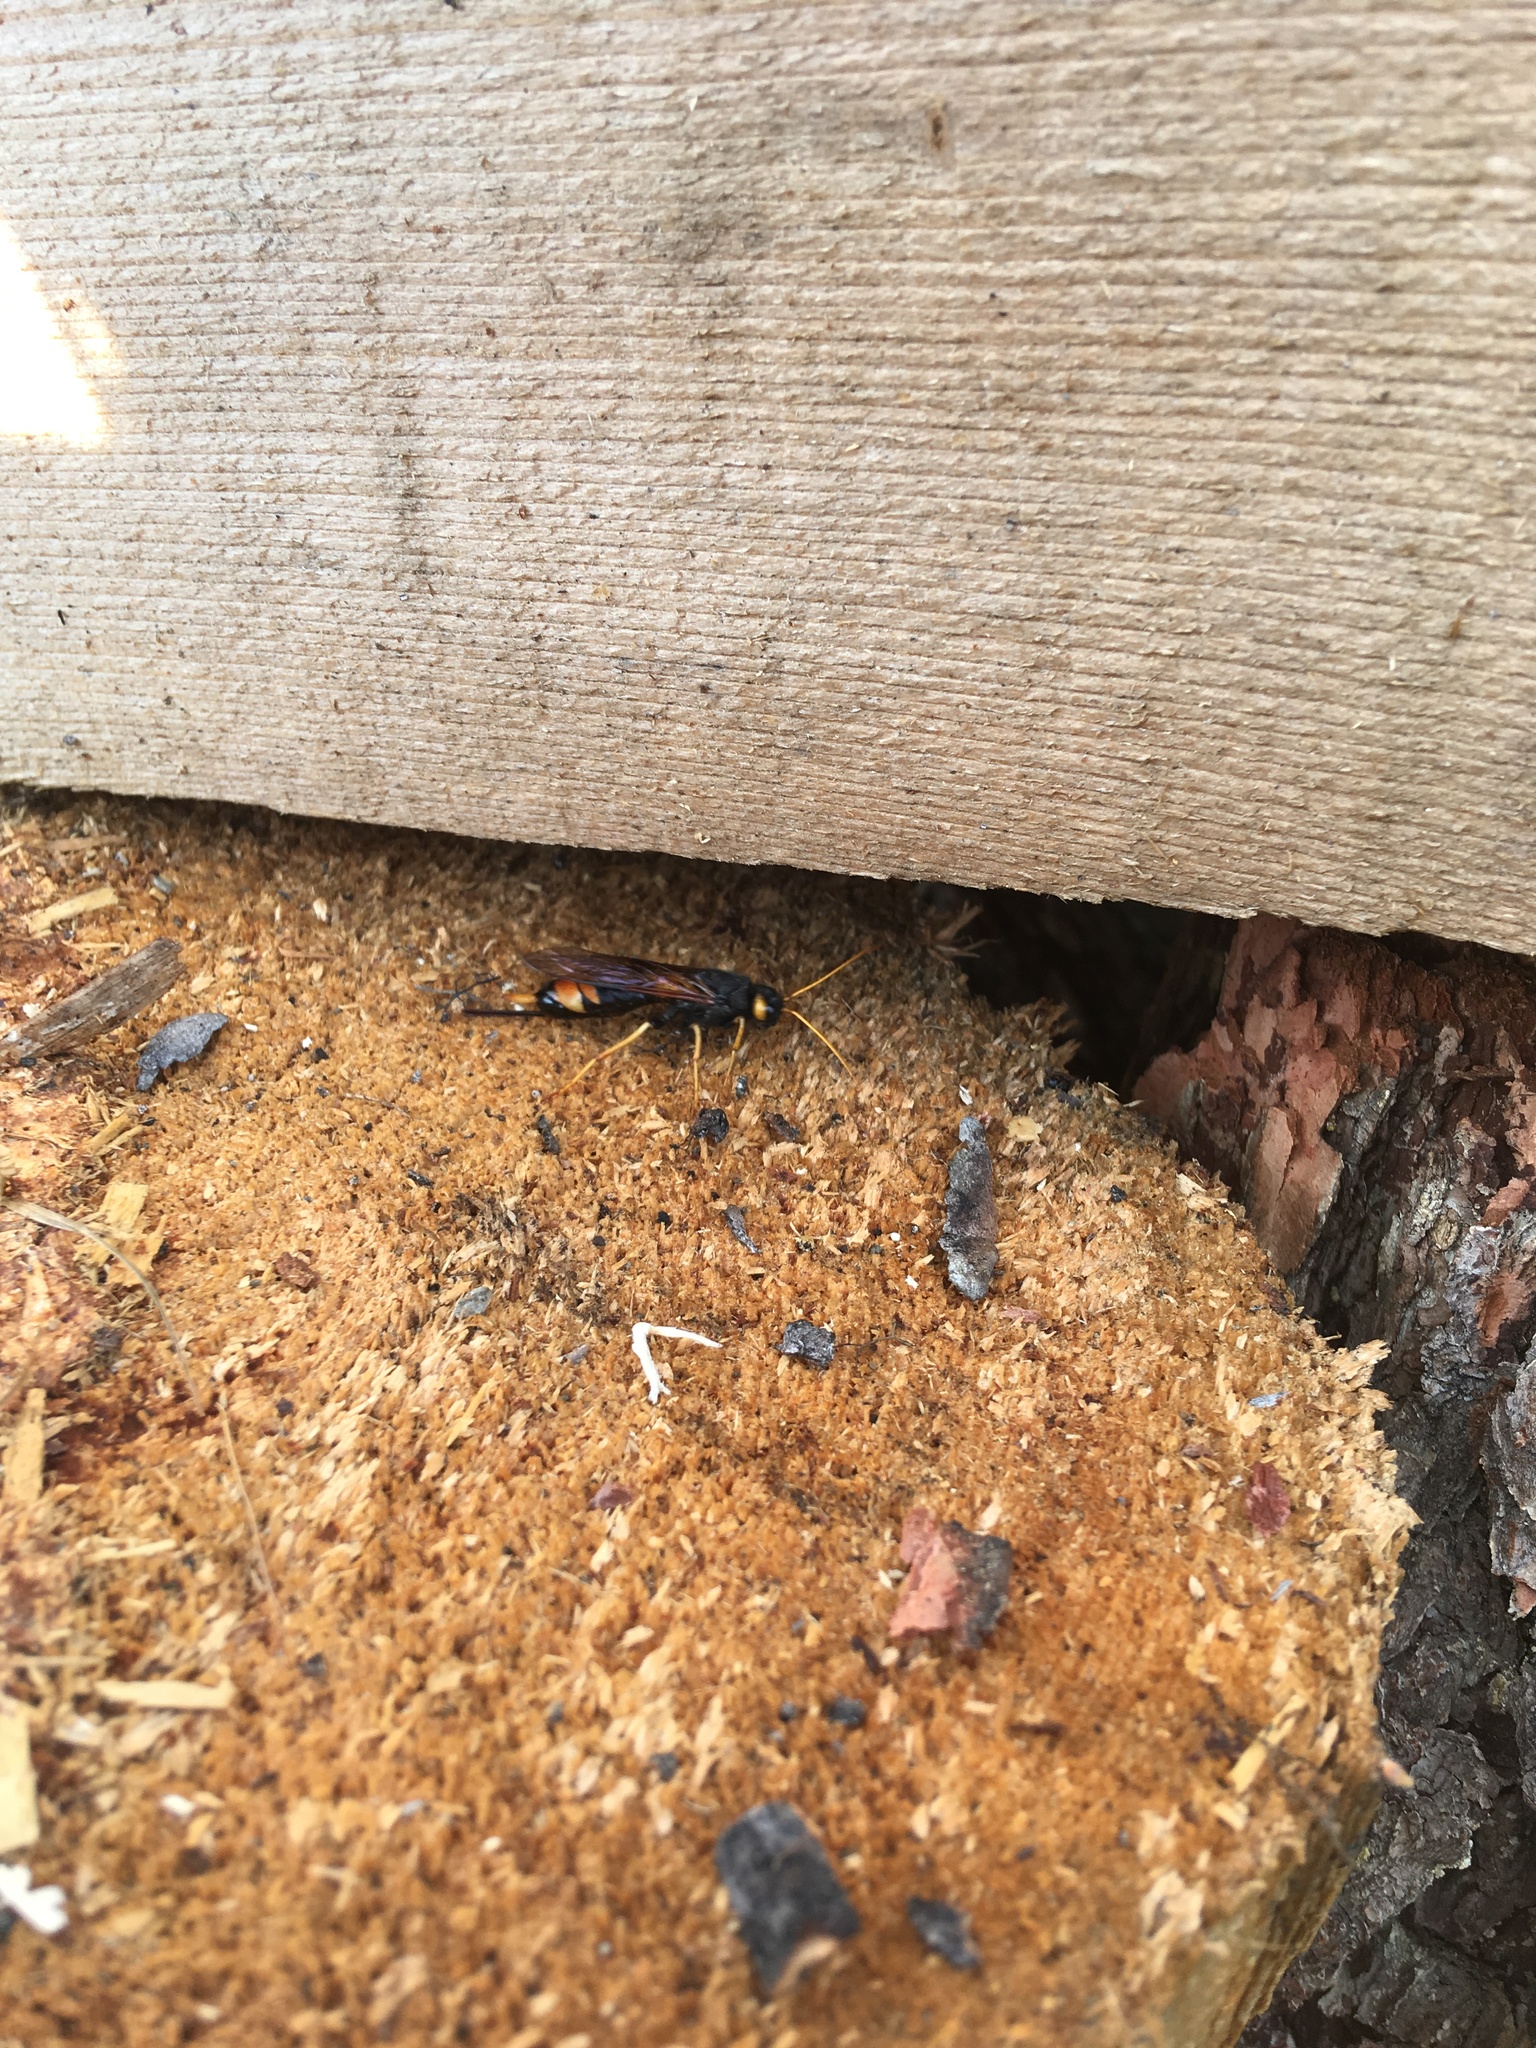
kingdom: Animalia
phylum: Arthropoda
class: Insecta
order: Hymenoptera
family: Siricidae
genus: Urocerus
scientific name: Urocerus gigas
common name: Giant woodwasp
